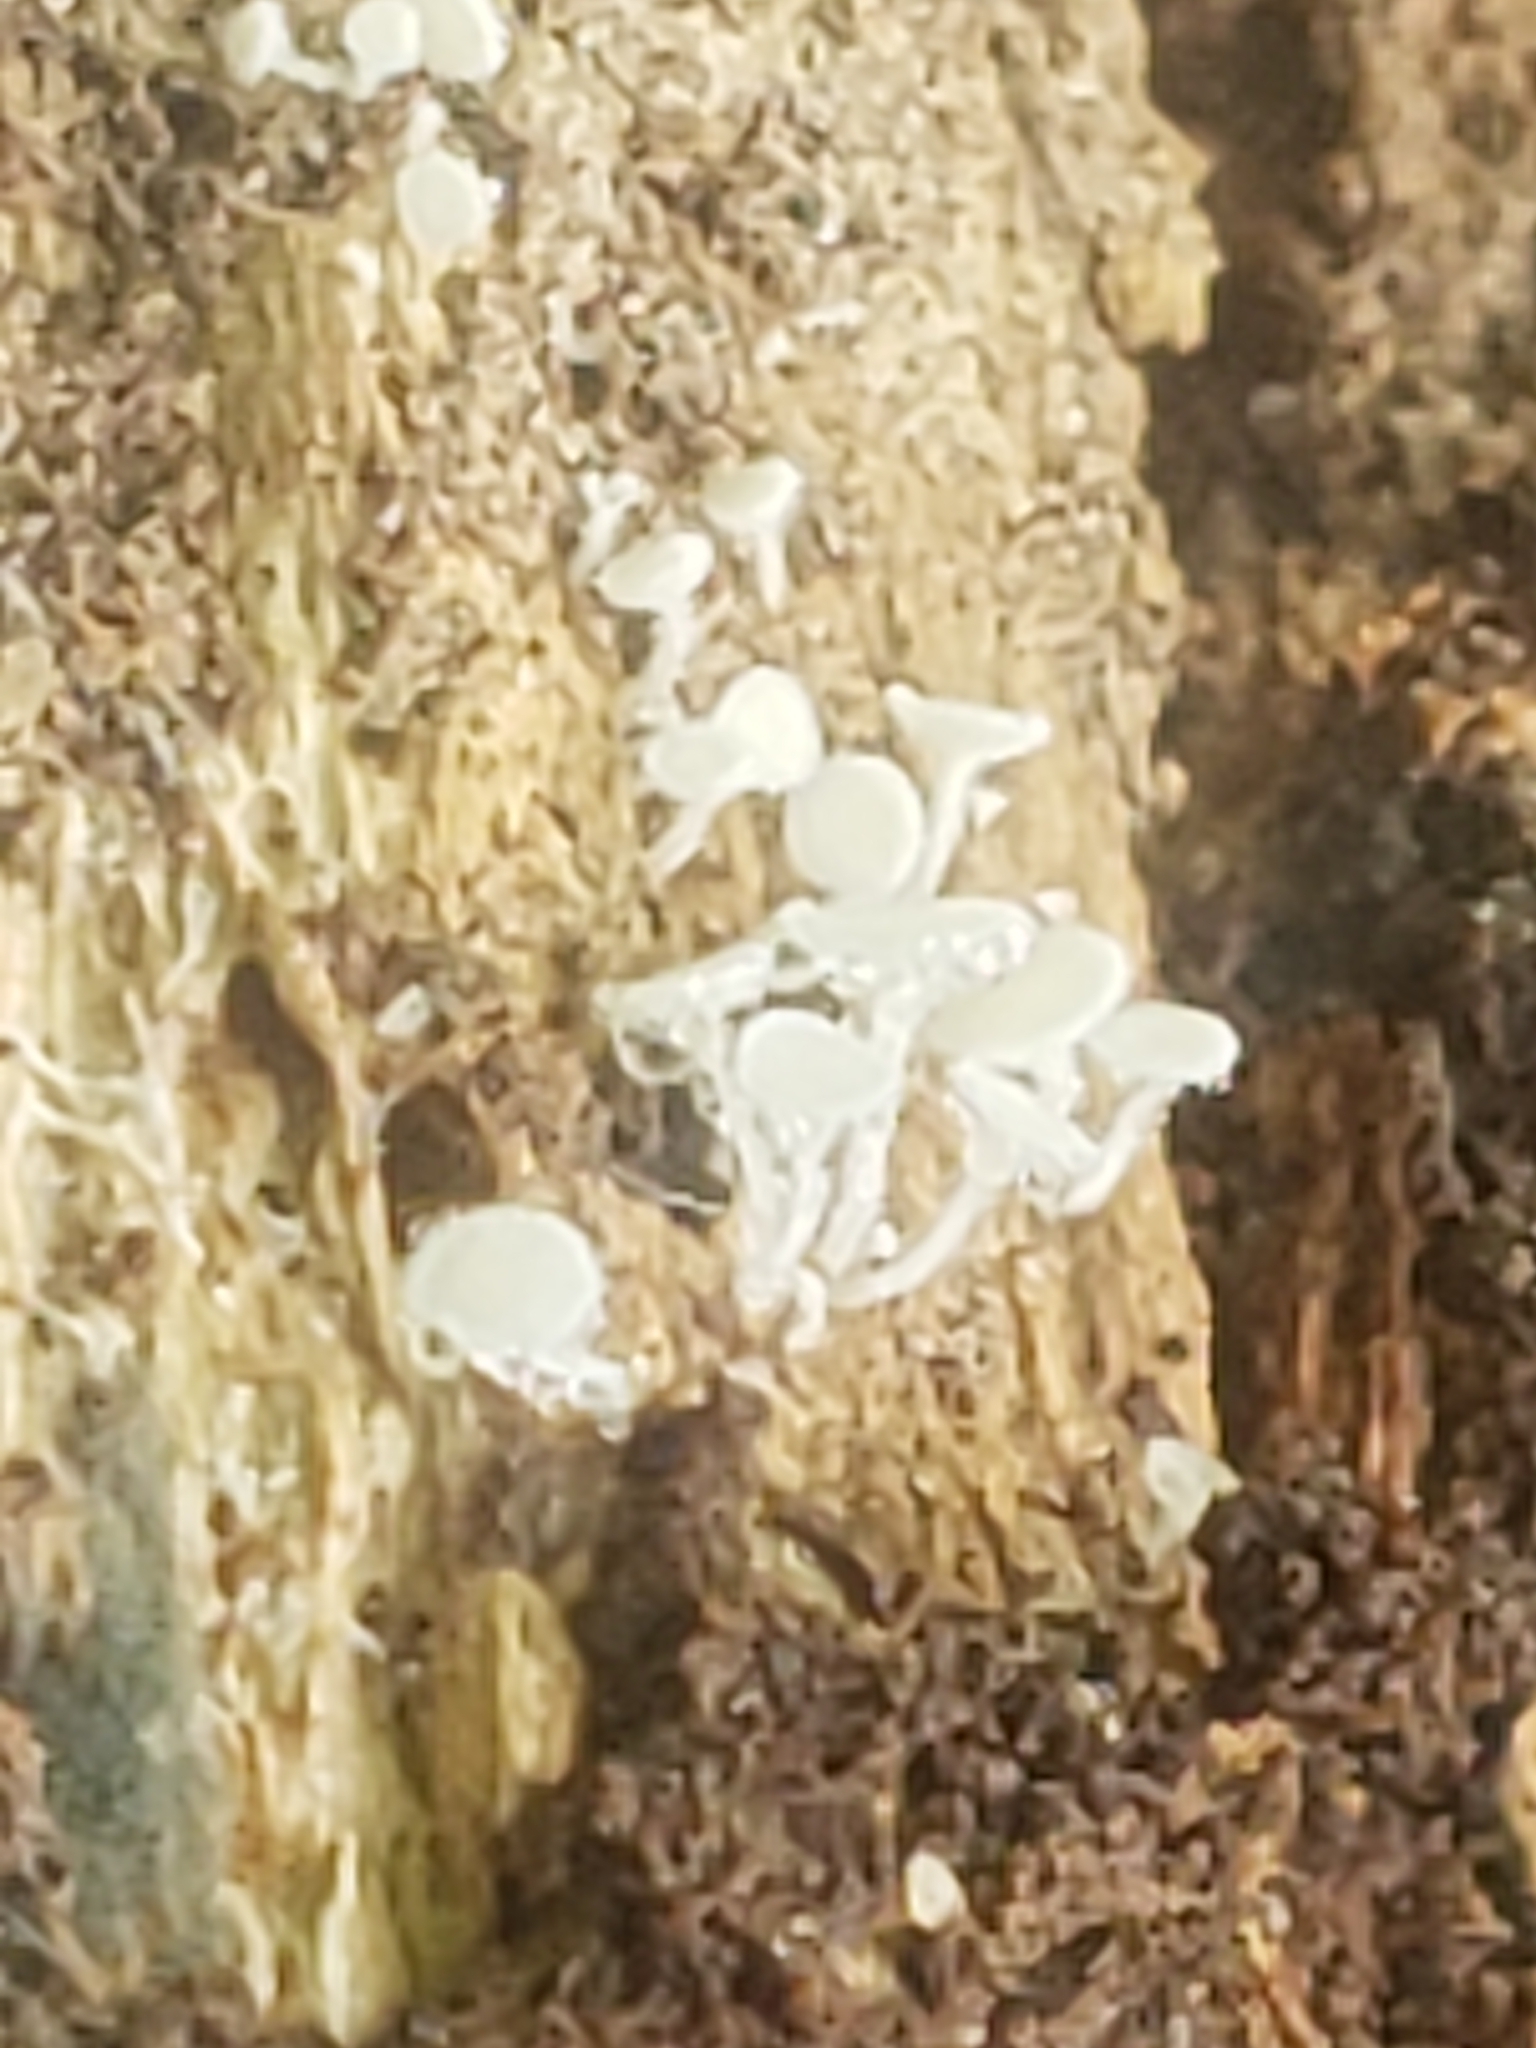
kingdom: Fungi
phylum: Ascomycota
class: Leotiomycetes
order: Helotiales
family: Lachnaceae
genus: Lachnum
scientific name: Lachnum virgineum
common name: Snowy disco
